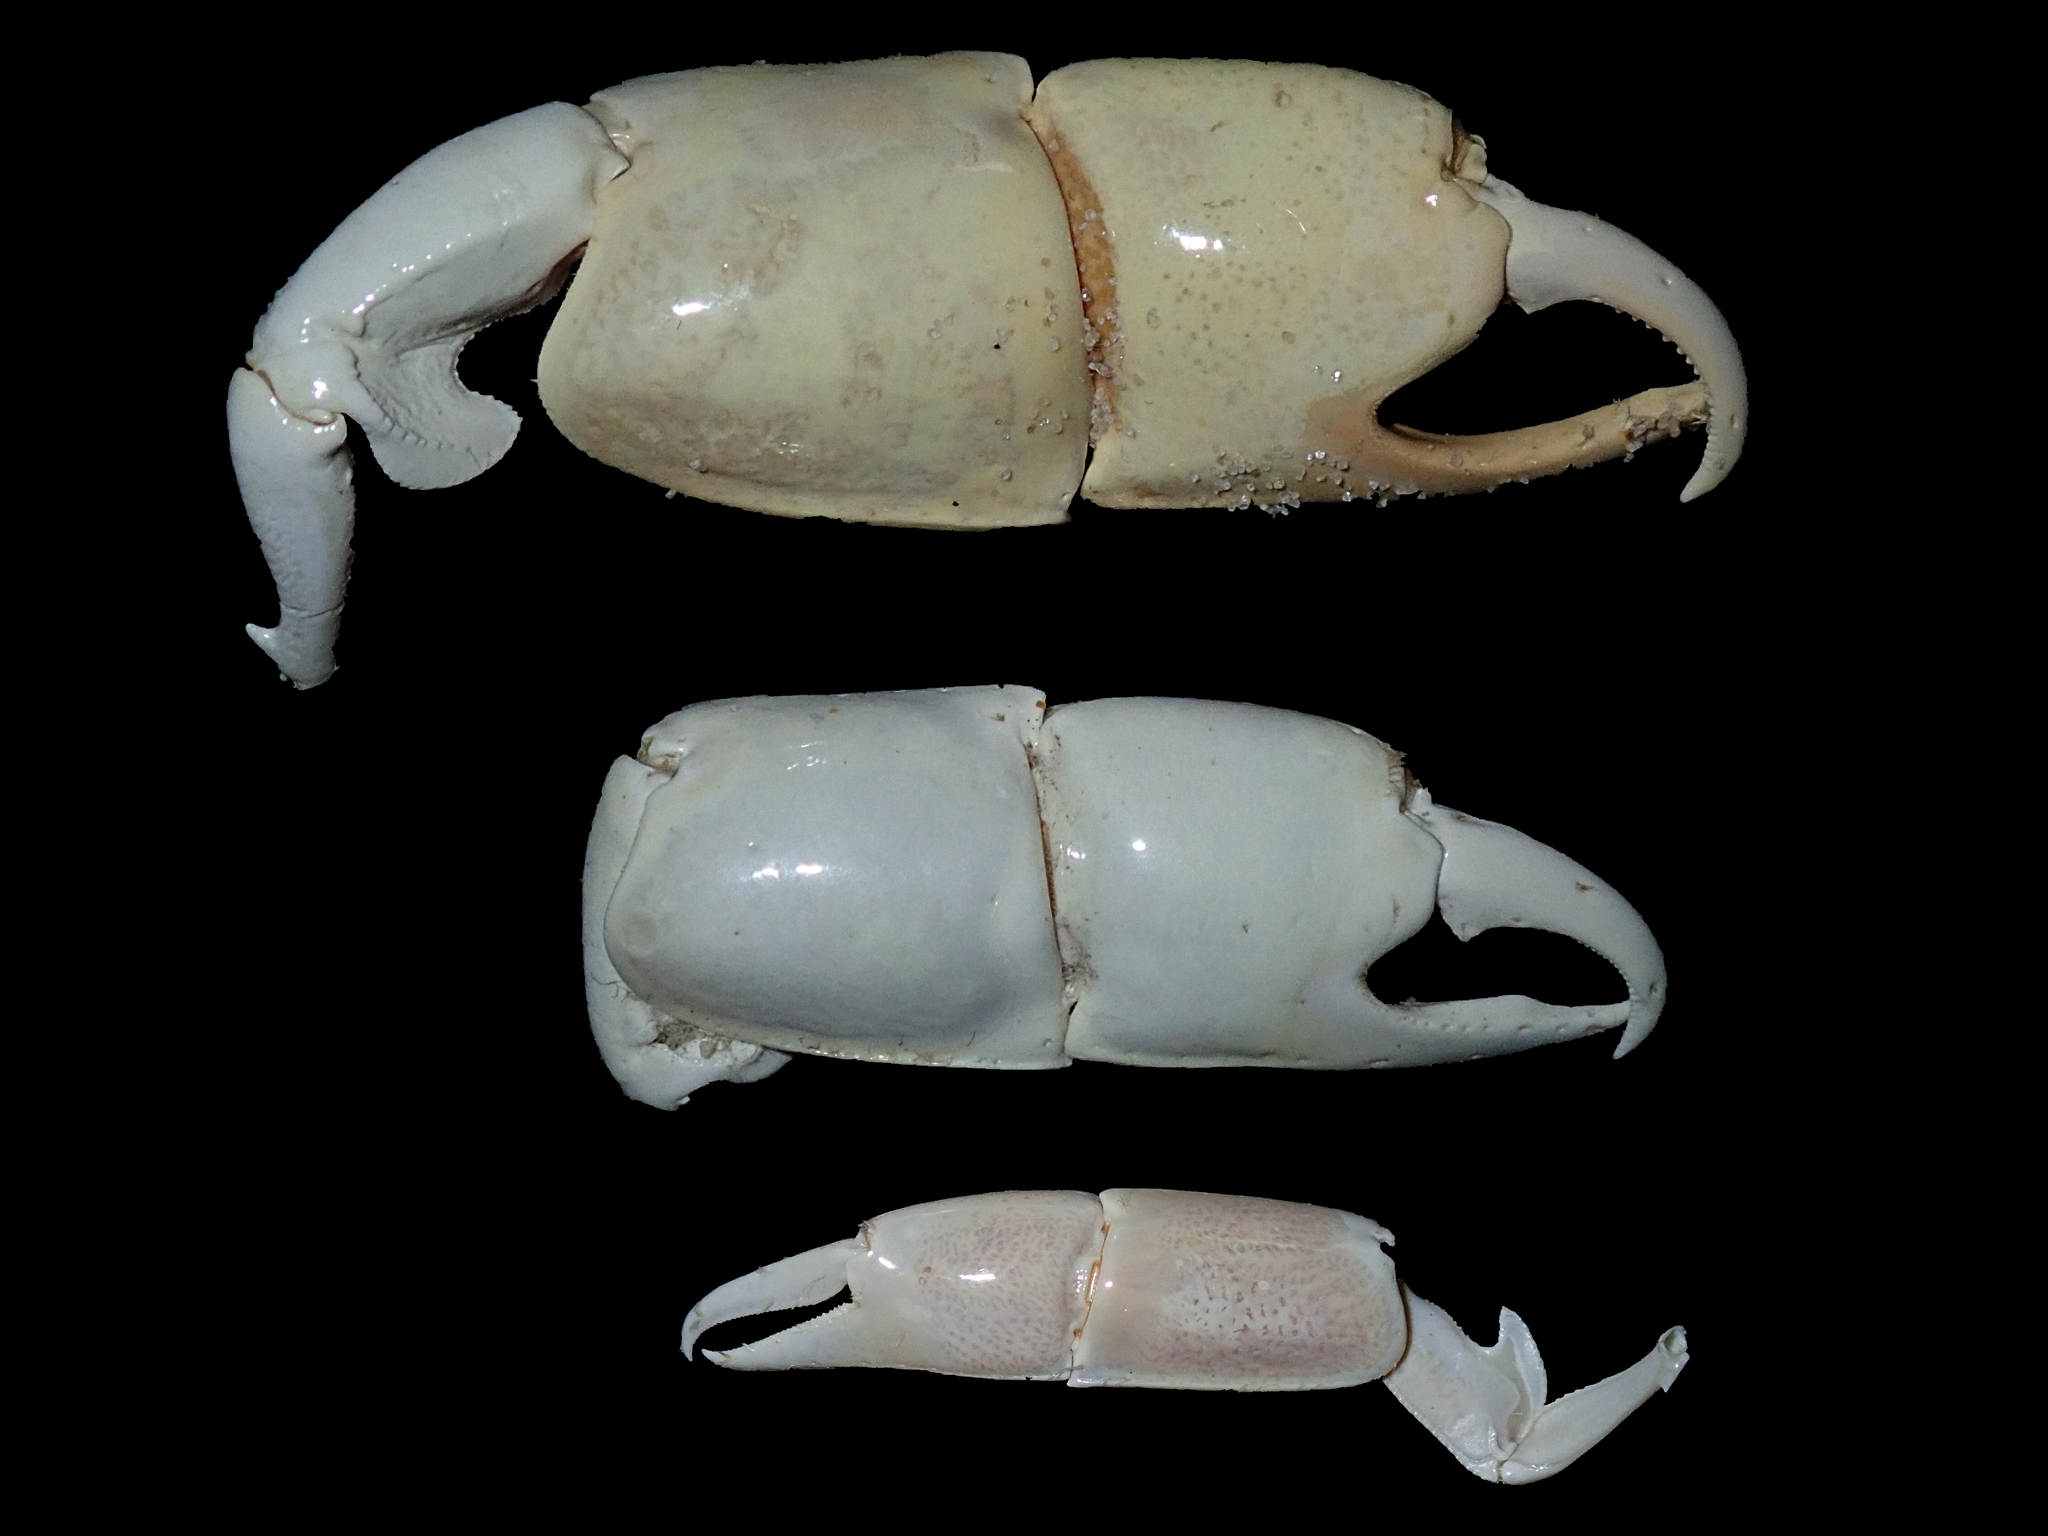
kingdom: Animalia
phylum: Arthropoda
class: Malacostraca
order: Decapoda
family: Callianassidae
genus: Trypaea
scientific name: Trypaea australiensis
